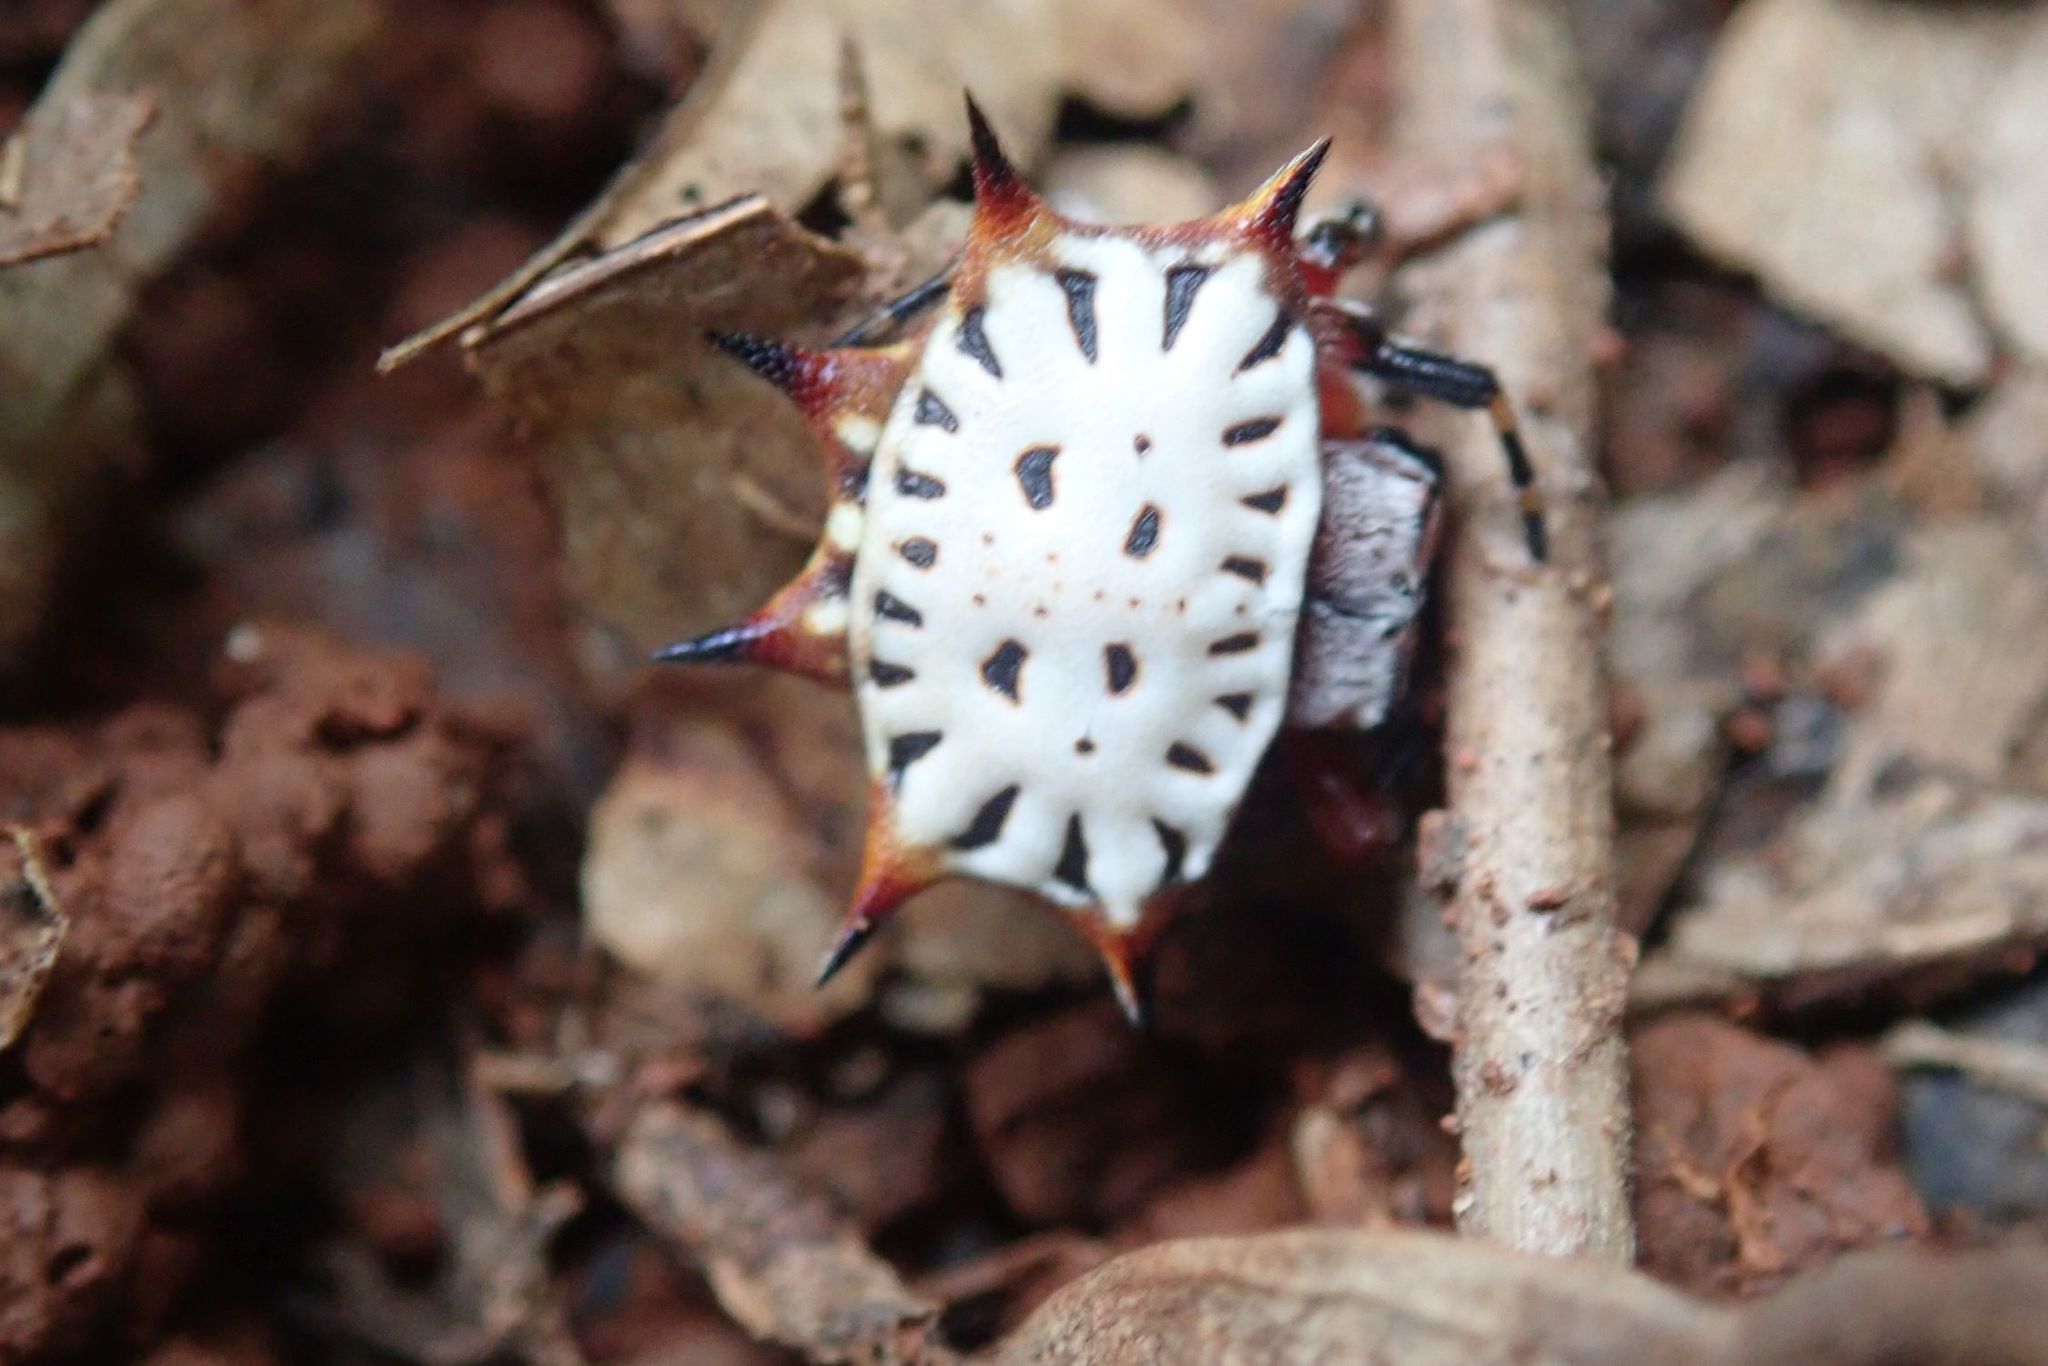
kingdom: Animalia
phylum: Arthropoda
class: Arachnida
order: Araneae
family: Araneidae
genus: Isoxya
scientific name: Isoxya stuhlmanni
